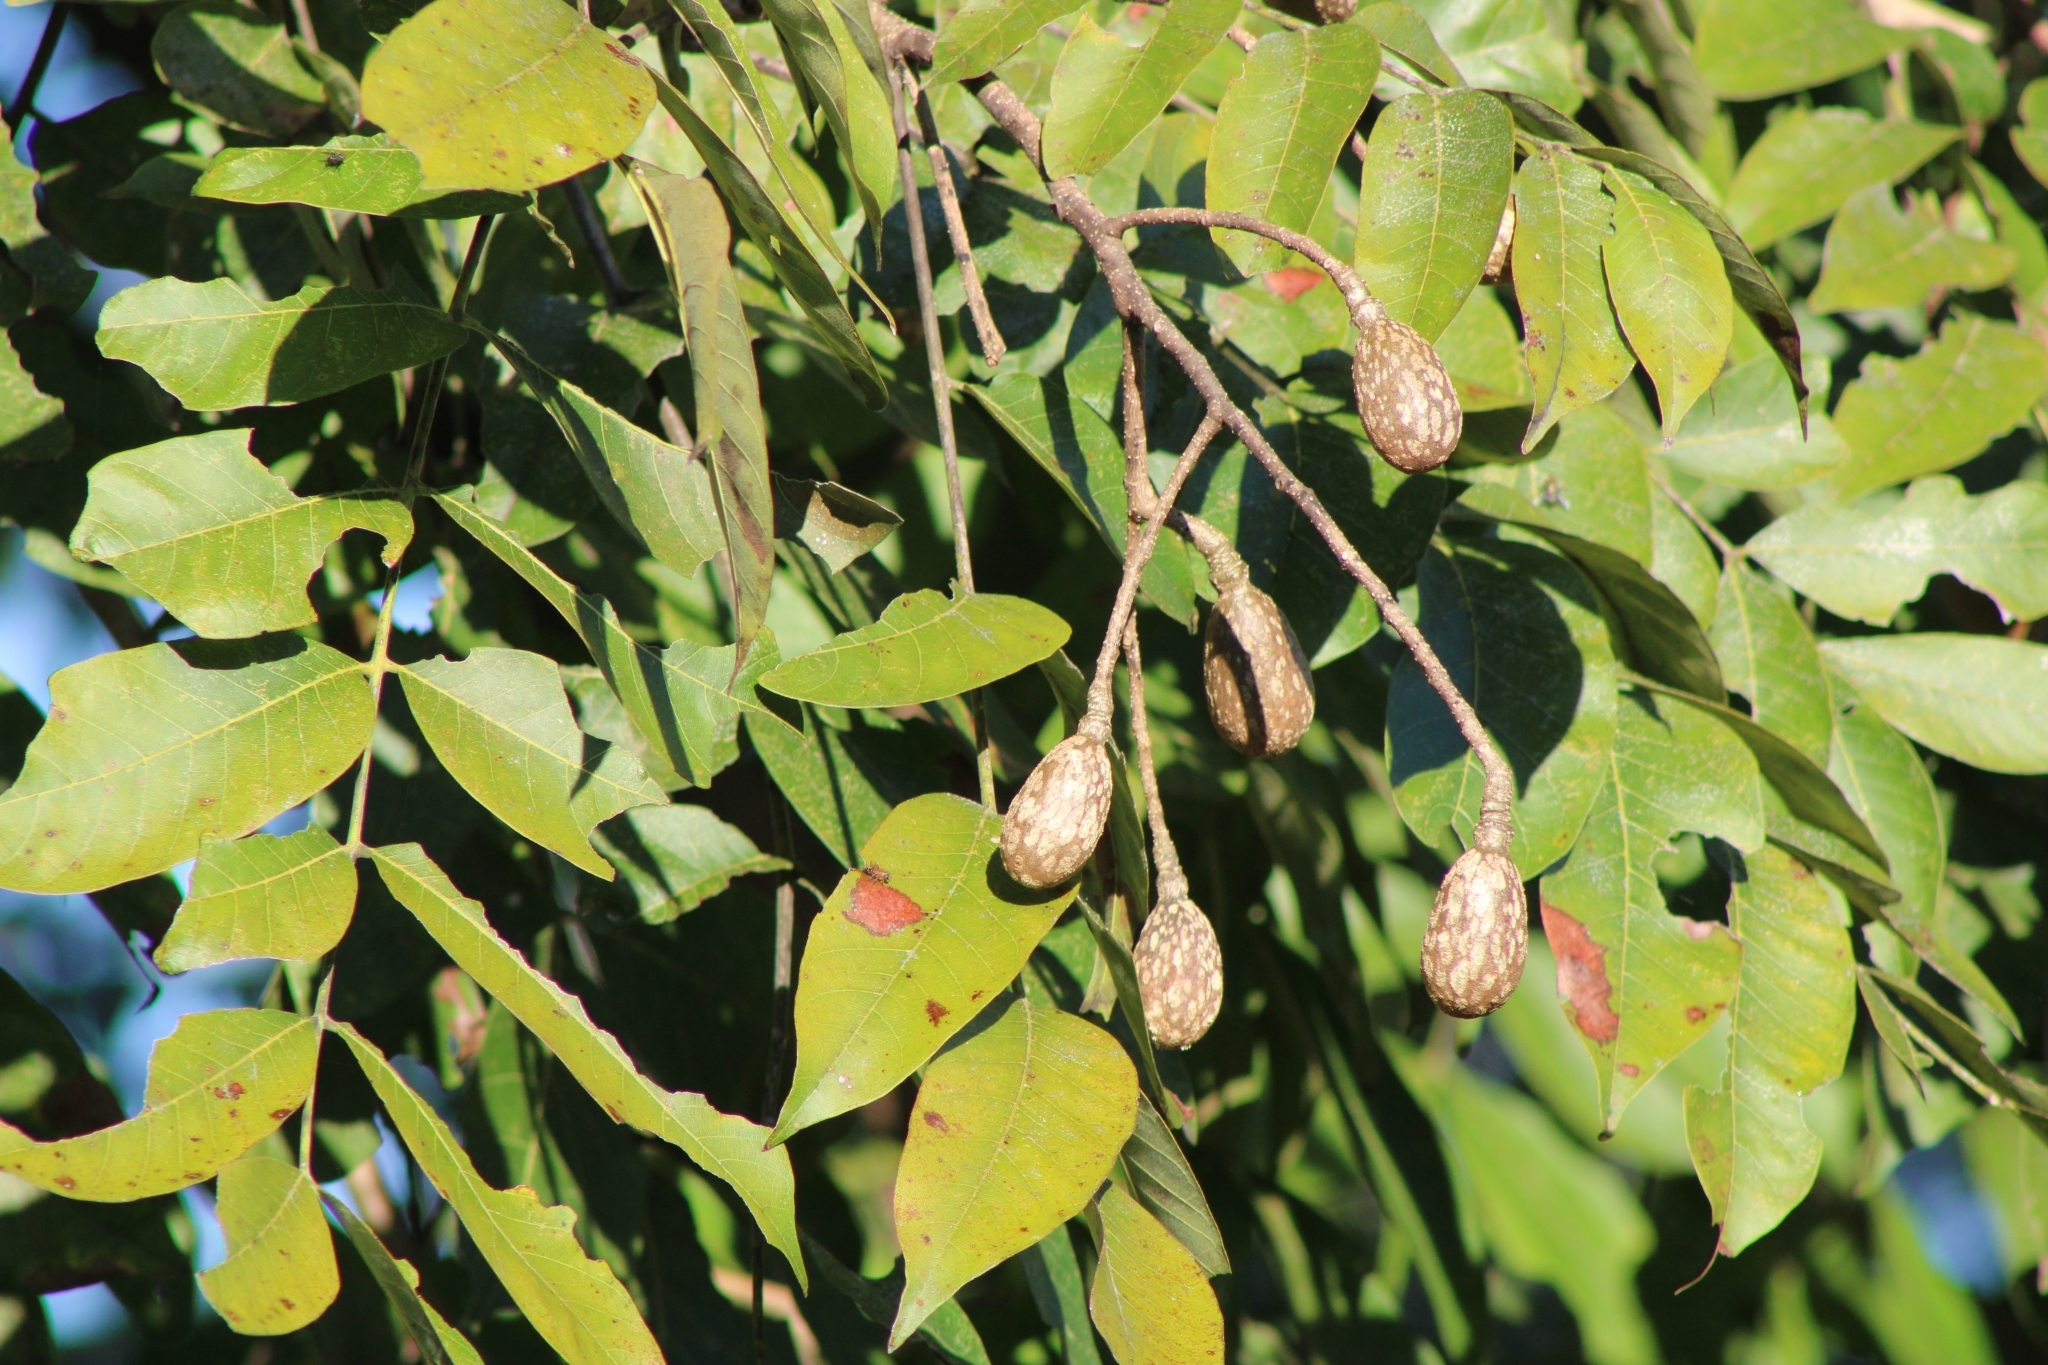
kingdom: Plantae
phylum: Tracheophyta
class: Magnoliopsida
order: Sapindales
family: Meliaceae
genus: Cedrela
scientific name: Cedrela odorata
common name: Red cedar
